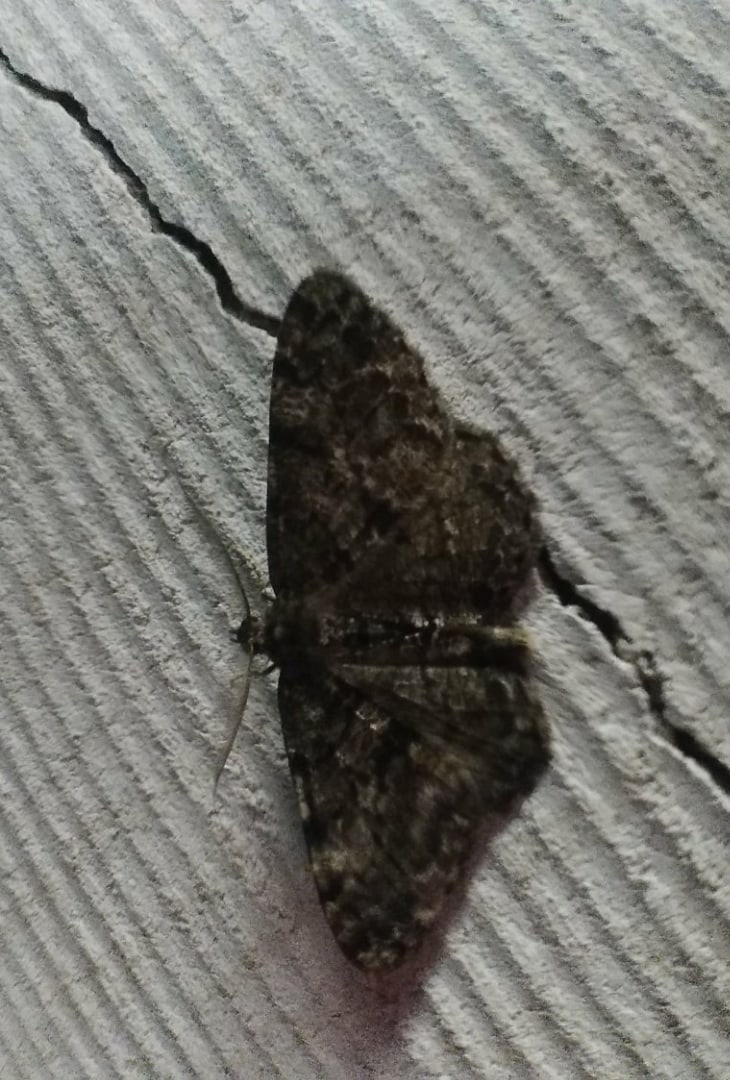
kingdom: Animalia
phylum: Arthropoda
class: Insecta
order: Lepidoptera
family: Geometridae
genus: Hypomecis
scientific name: Hypomecis roboraria
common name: Great oak beauty
